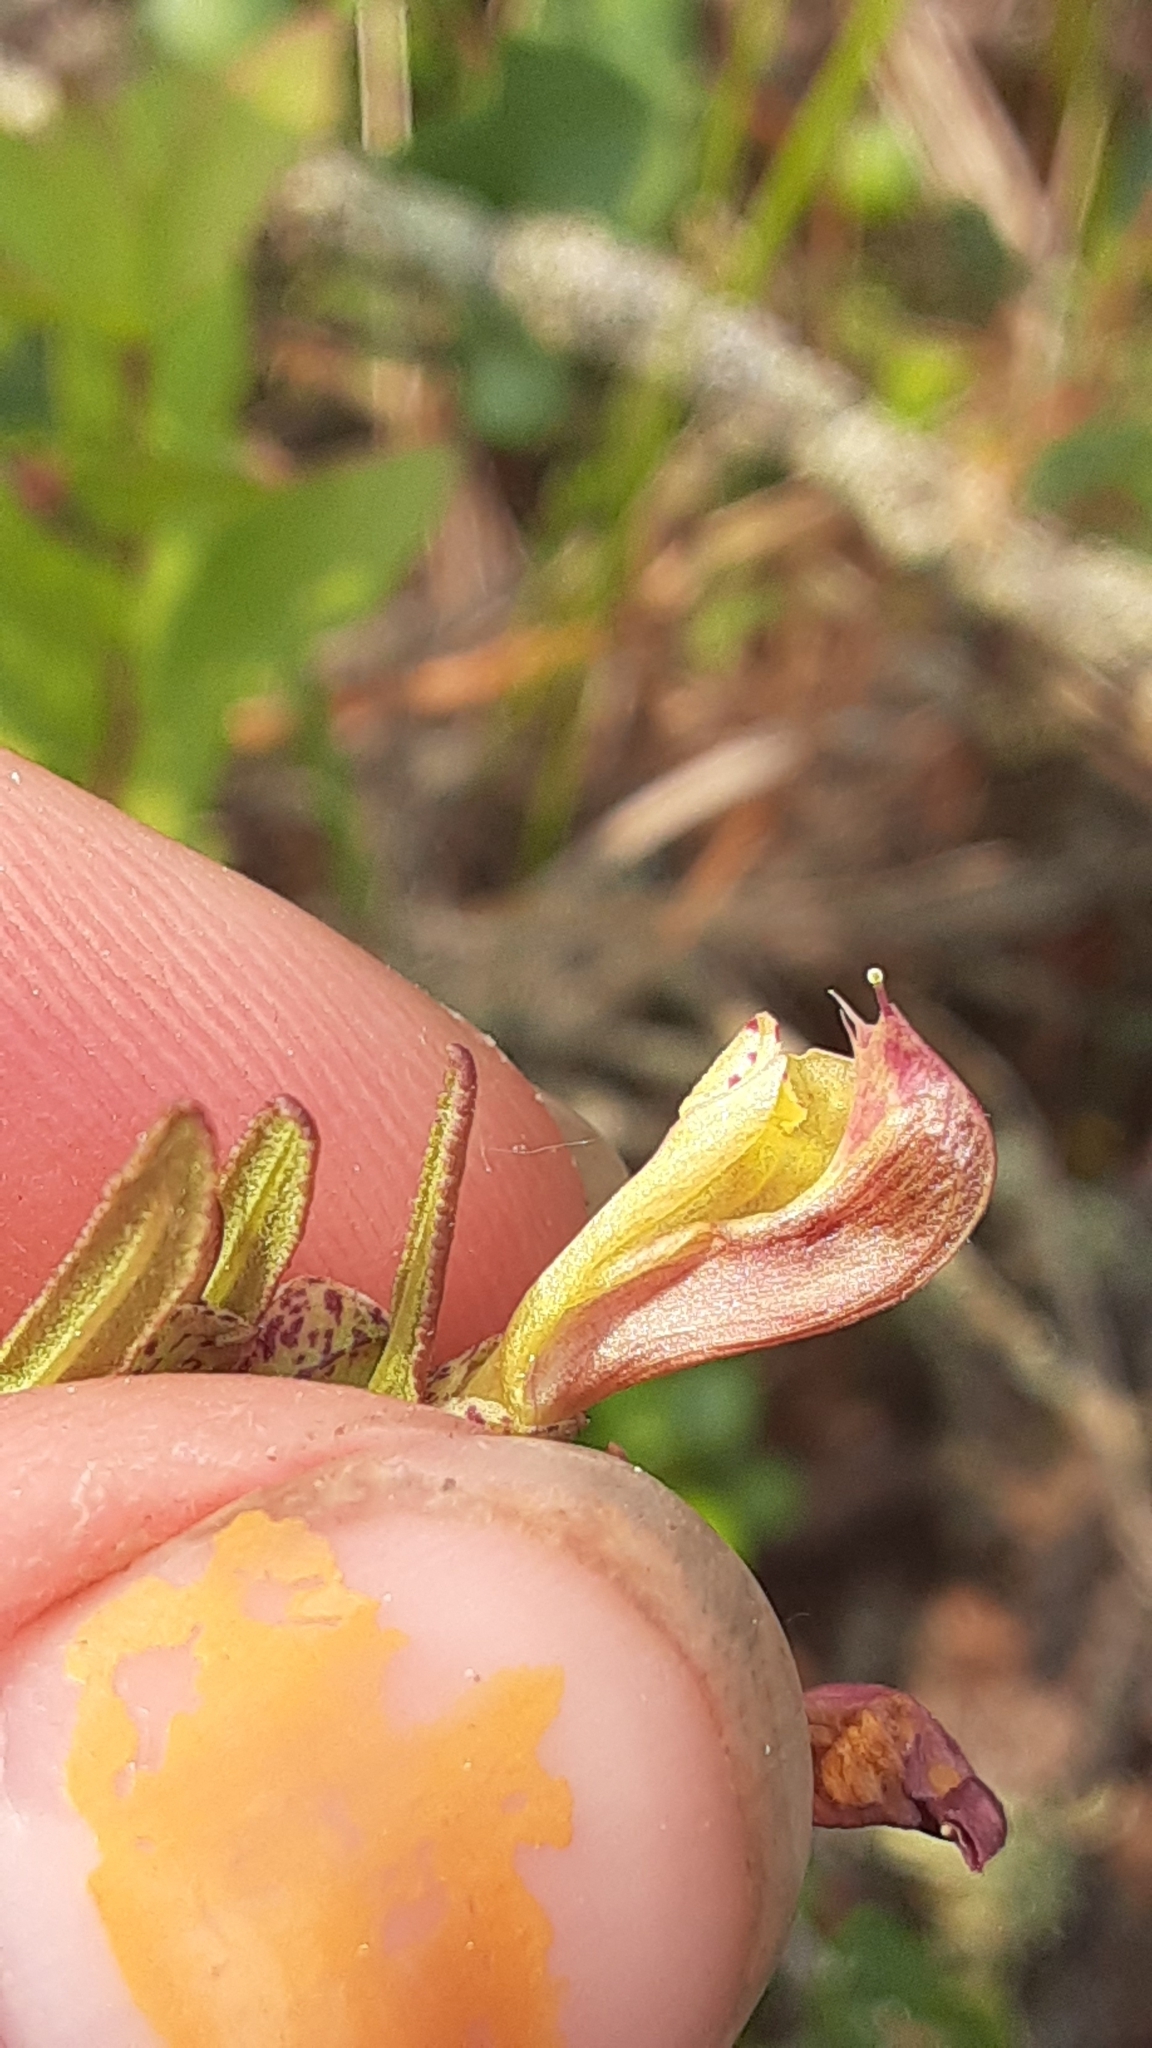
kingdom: Plantae
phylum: Tracheophyta
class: Magnoliopsida
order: Lamiales
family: Orobanchaceae
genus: Pedicularis
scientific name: Pedicularis labradorica
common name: Labrador lousewort
